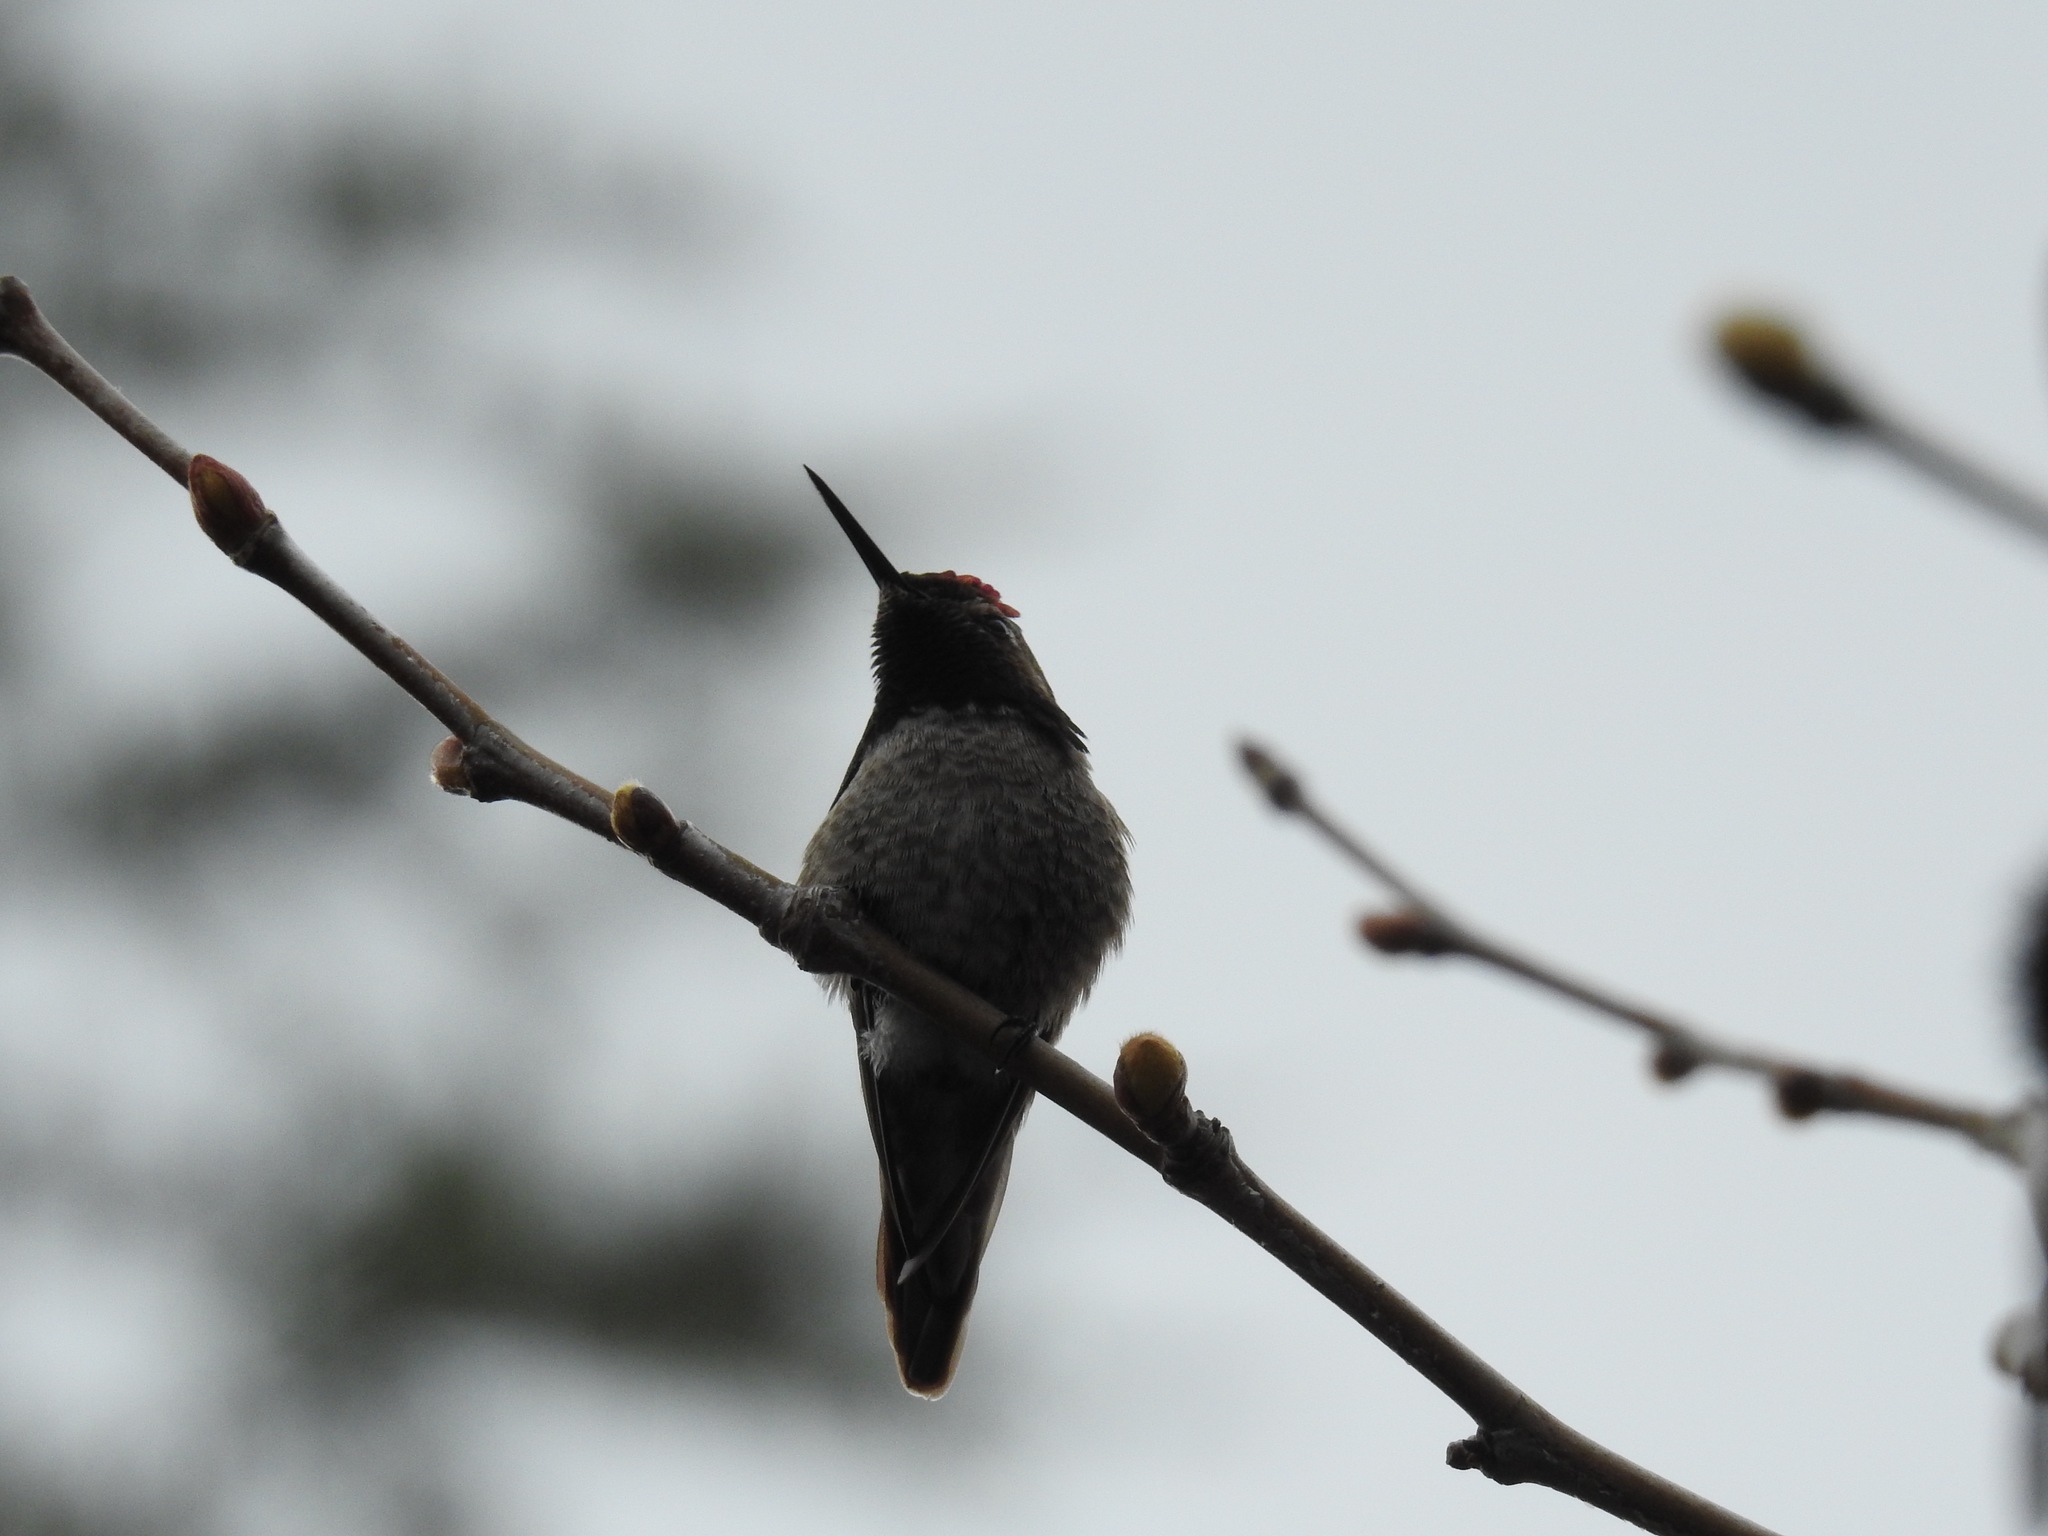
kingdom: Animalia
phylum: Chordata
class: Aves
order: Apodiformes
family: Trochilidae
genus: Calypte
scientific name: Calypte anna
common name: Anna's hummingbird
